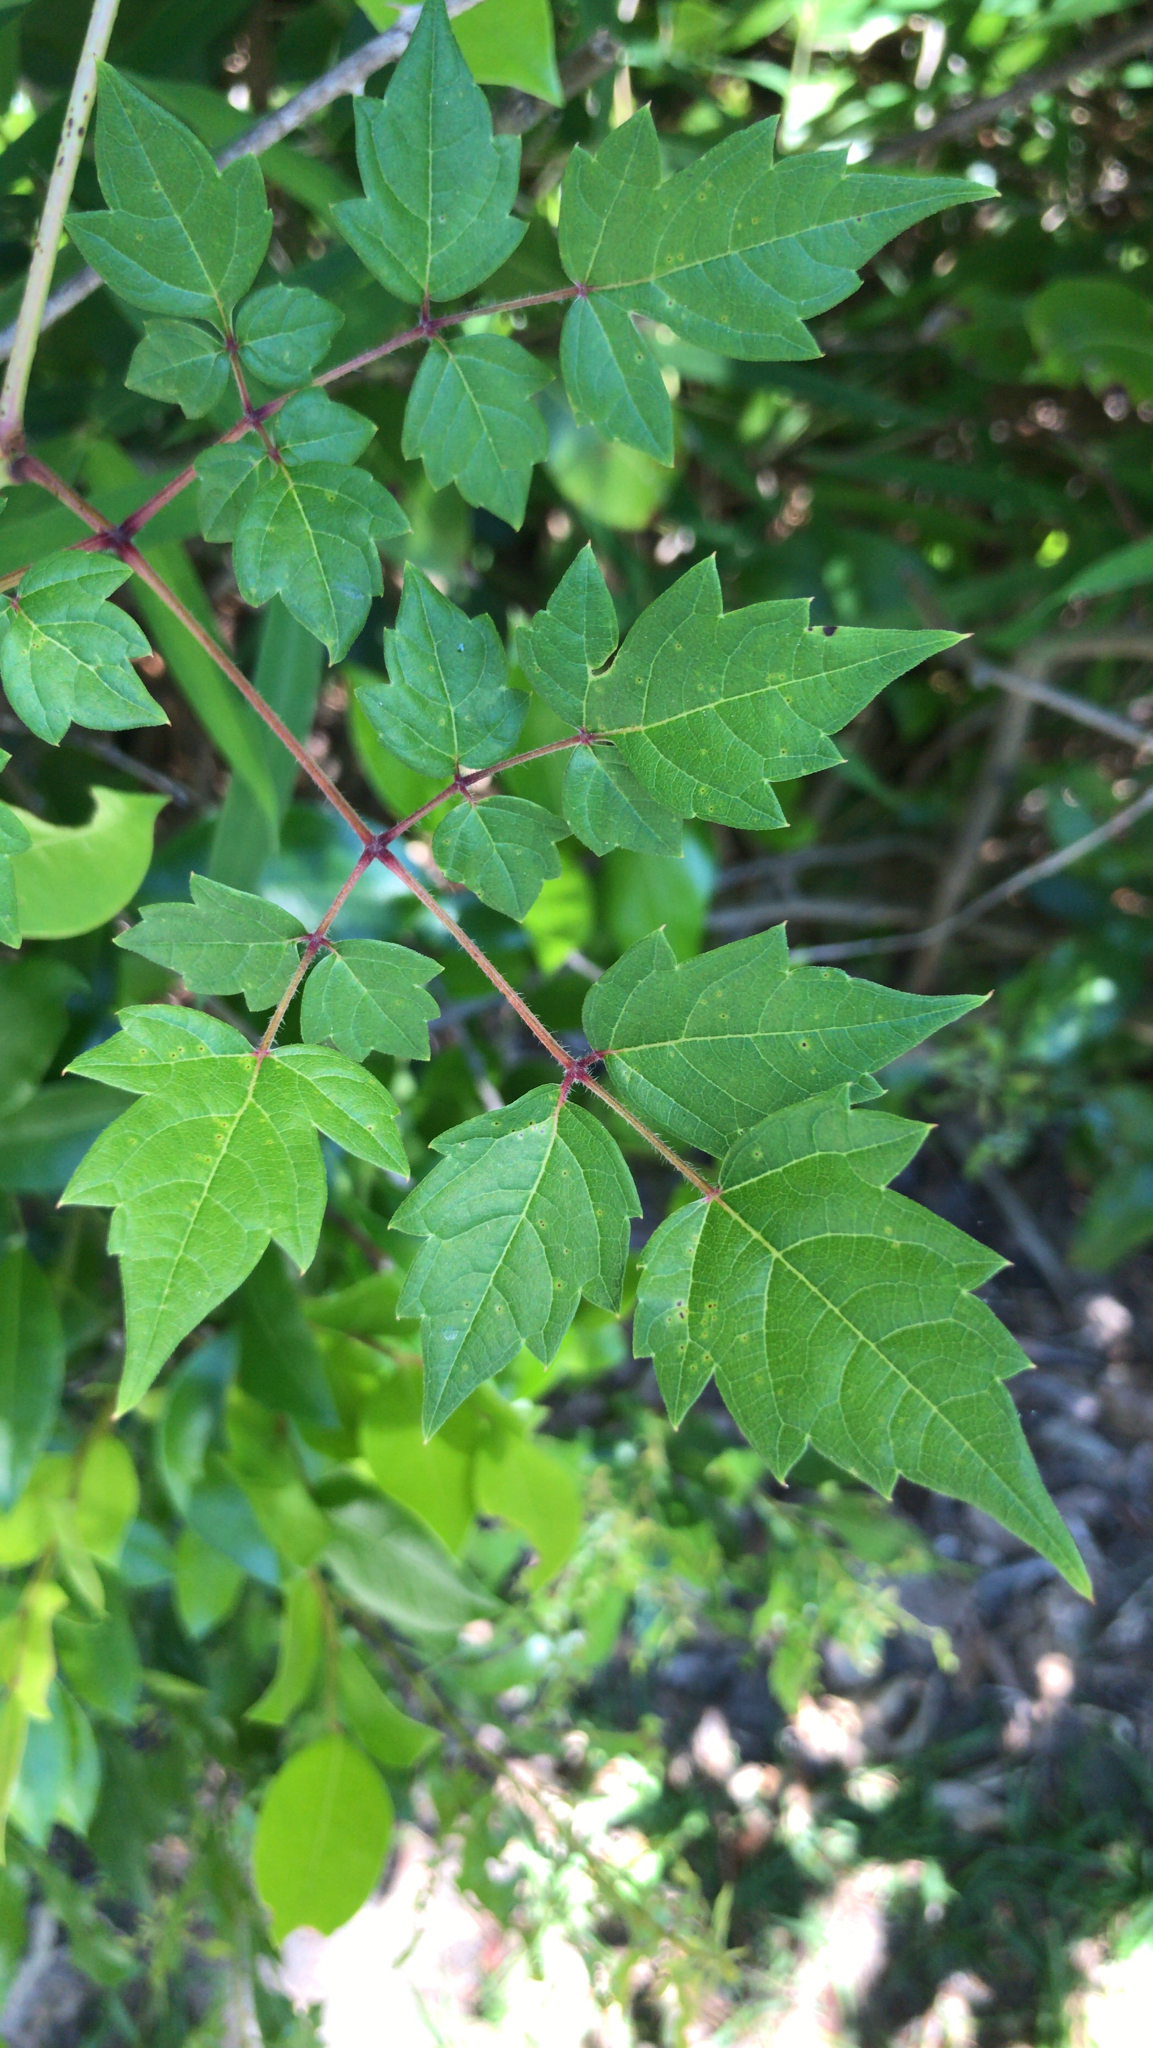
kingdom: Plantae
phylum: Tracheophyta
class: Magnoliopsida
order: Vitales
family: Vitaceae
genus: Nekemias
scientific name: Nekemias arborea
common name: Peppervine
